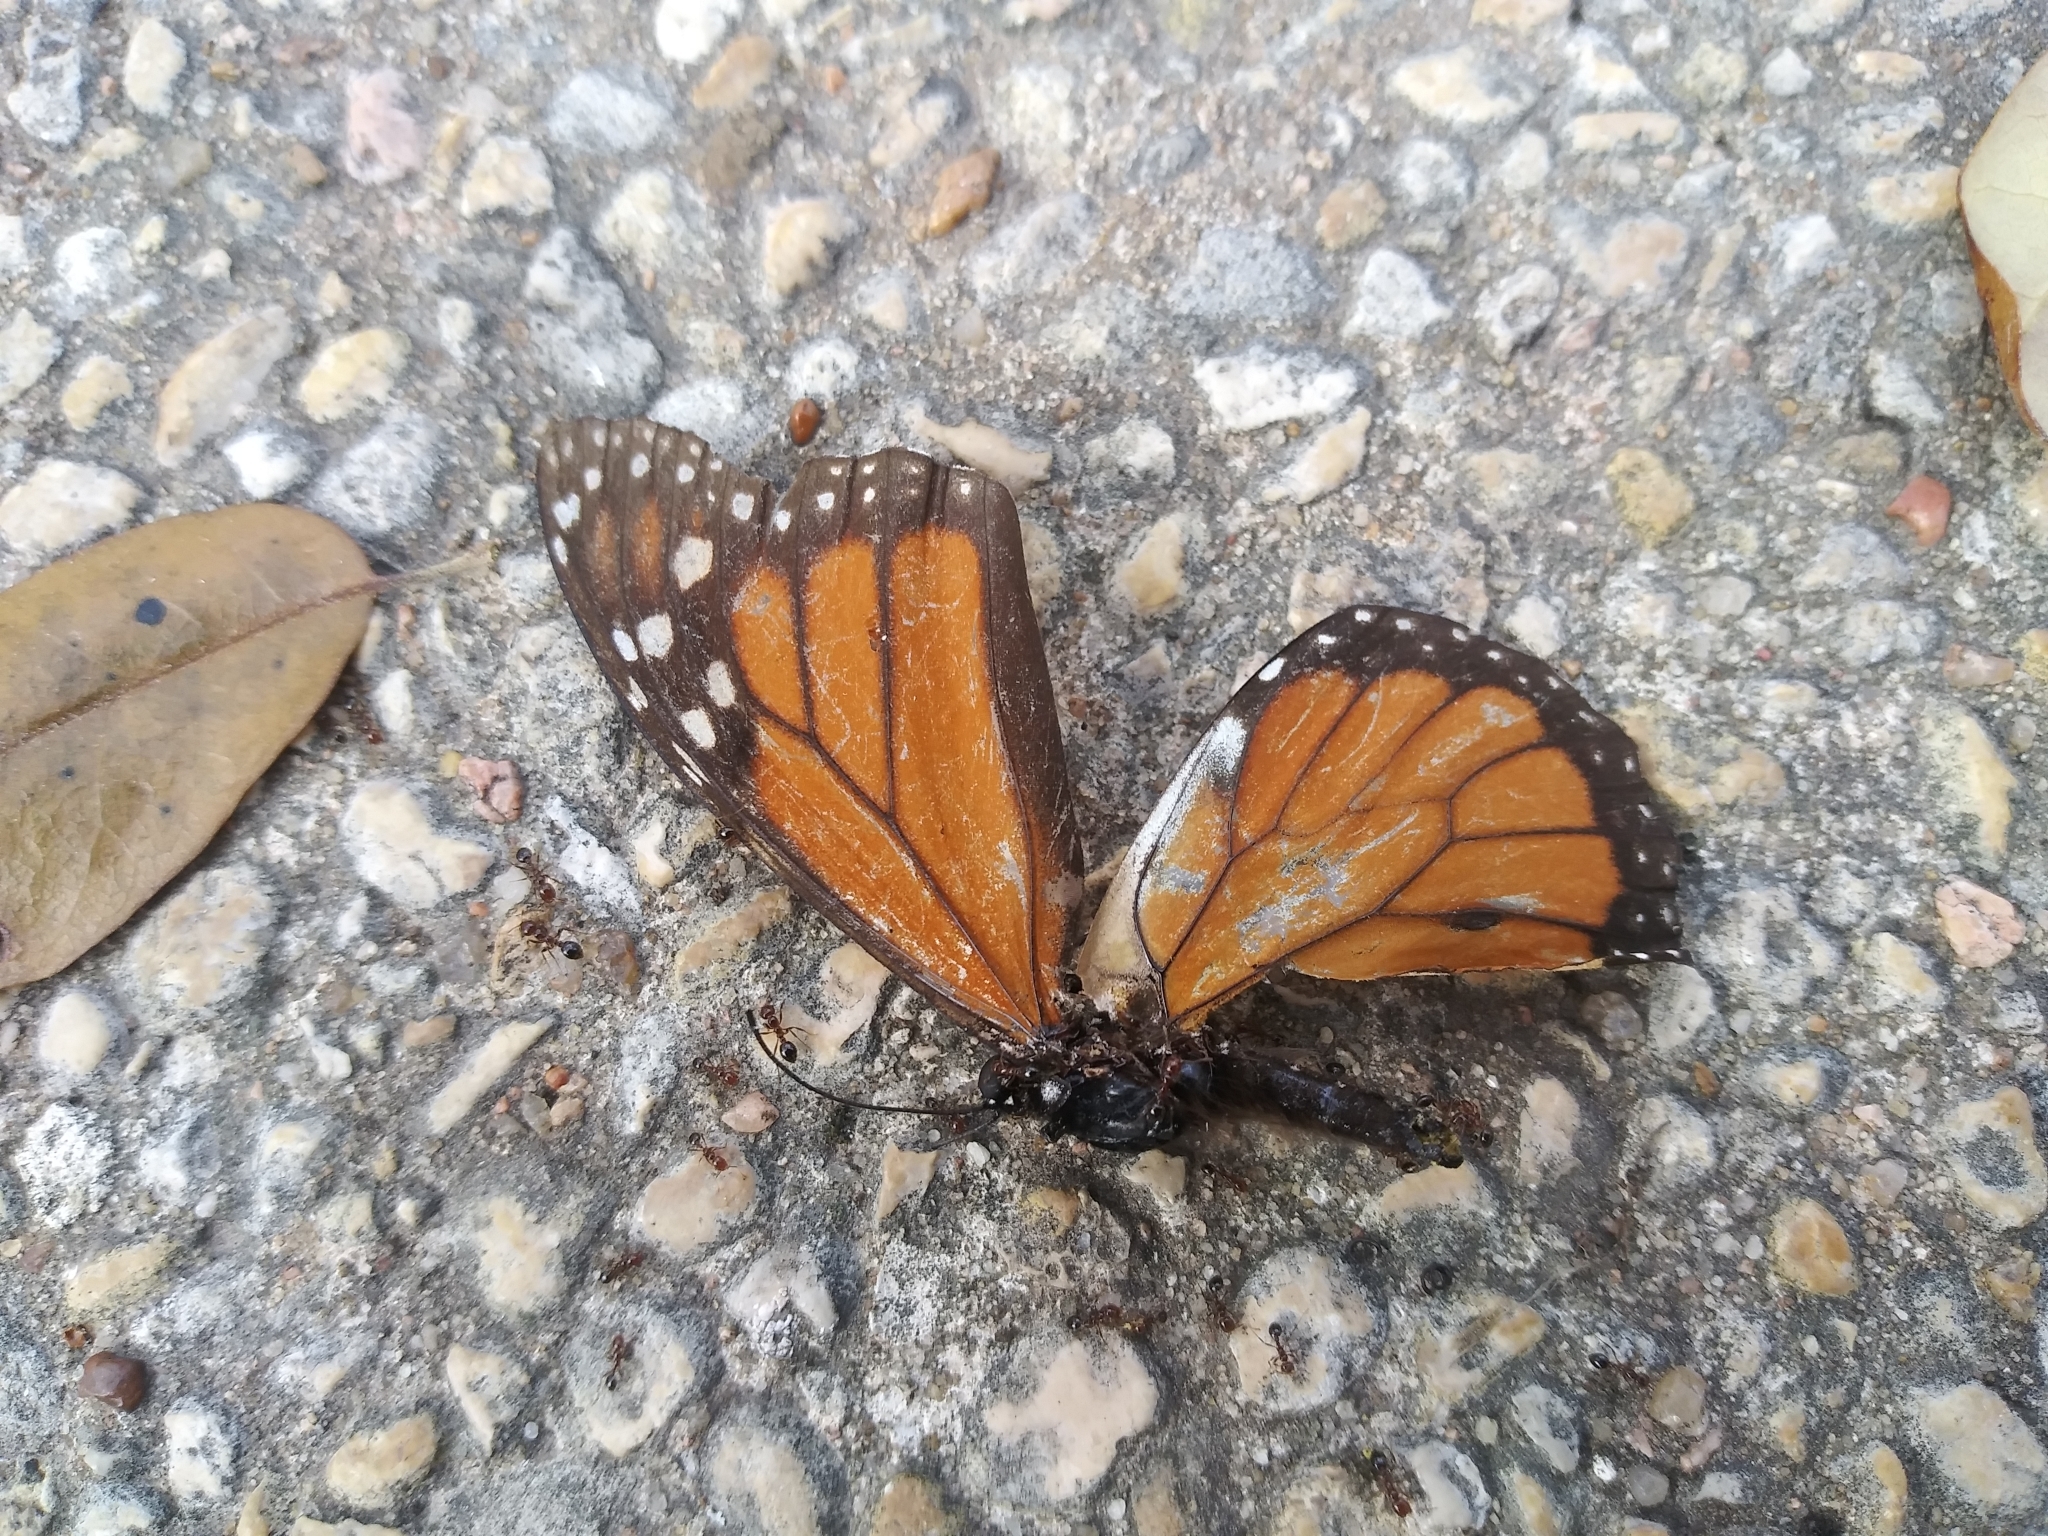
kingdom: Animalia
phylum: Arthropoda
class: Insecta
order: Lepidoptera
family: Nymphalidae
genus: Danaus
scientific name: Danaus plexippus
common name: Monarch
